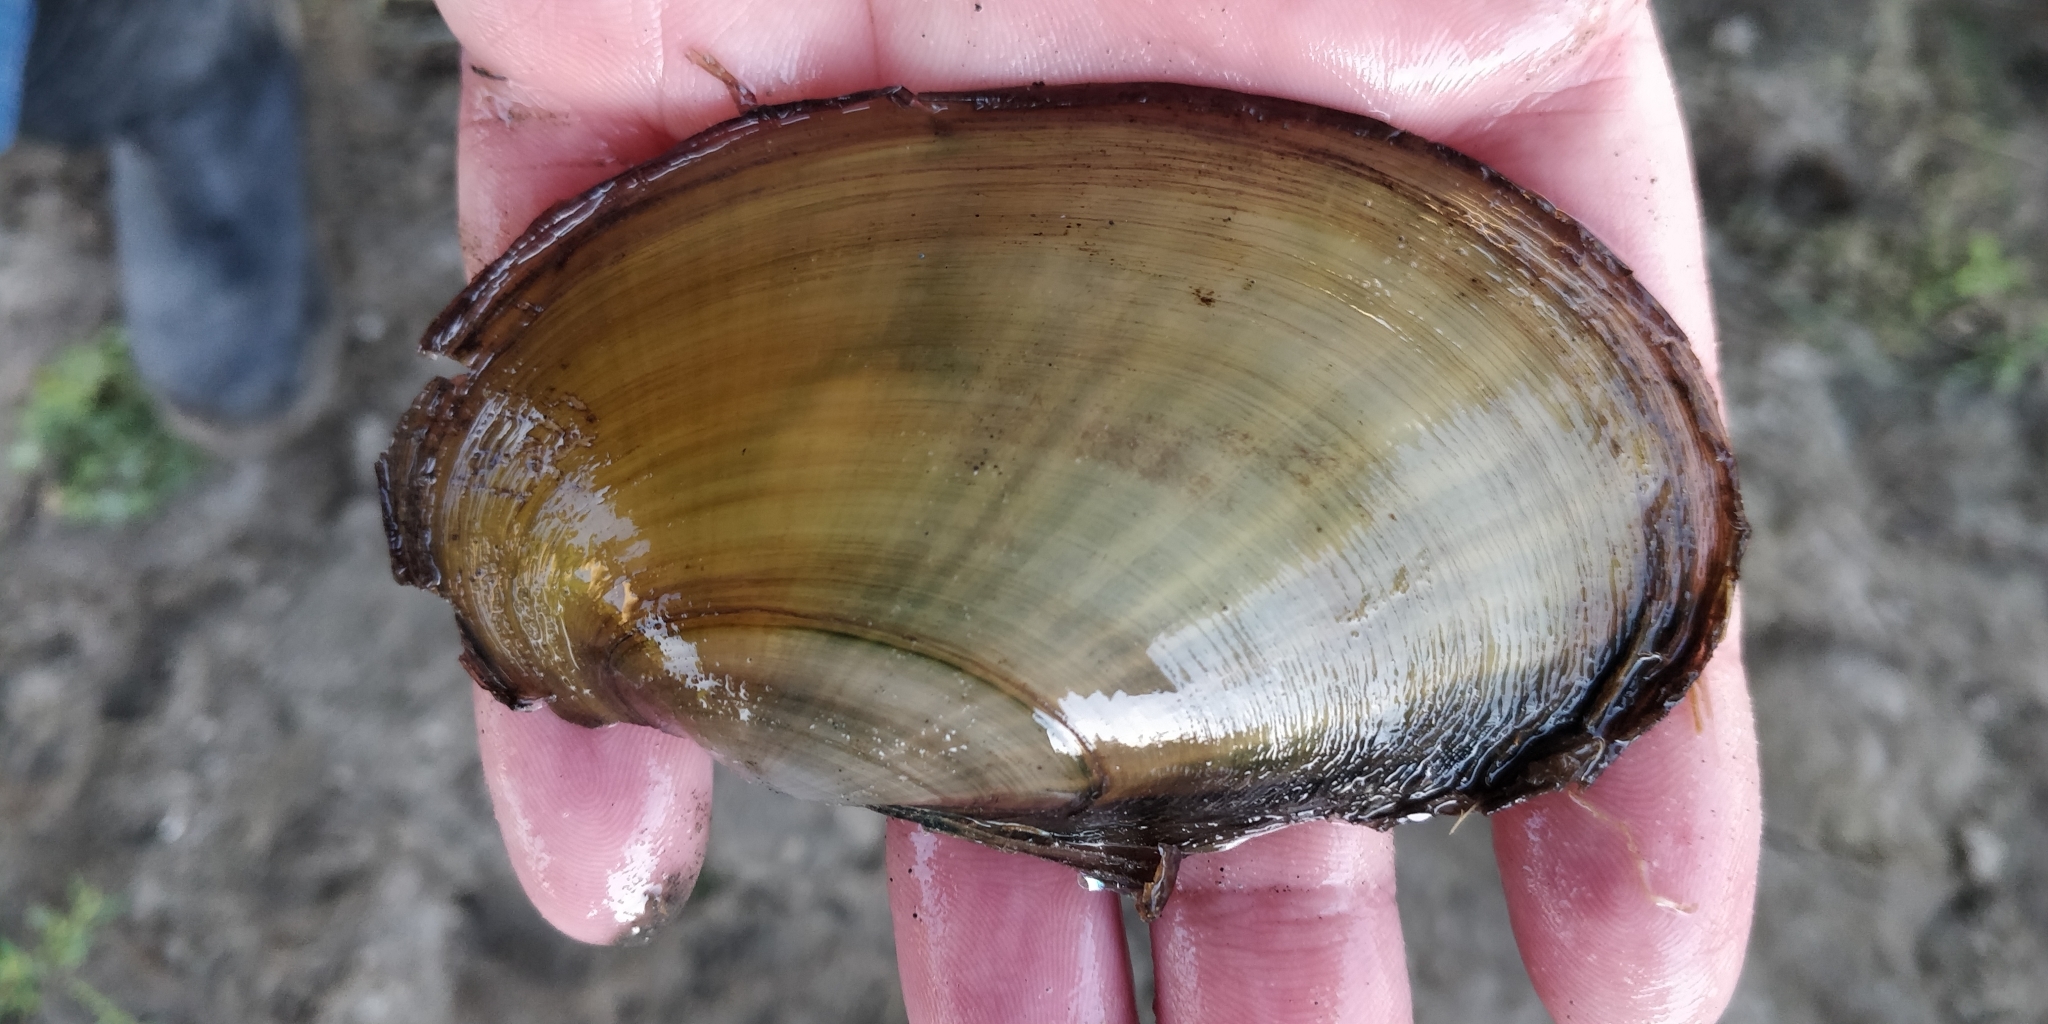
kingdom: Animalia
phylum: Mollusca
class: Bivalvia
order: Unionida
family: Unionidae
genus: Potamilus
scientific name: Potamilus fragilis
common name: Fragile papershell
